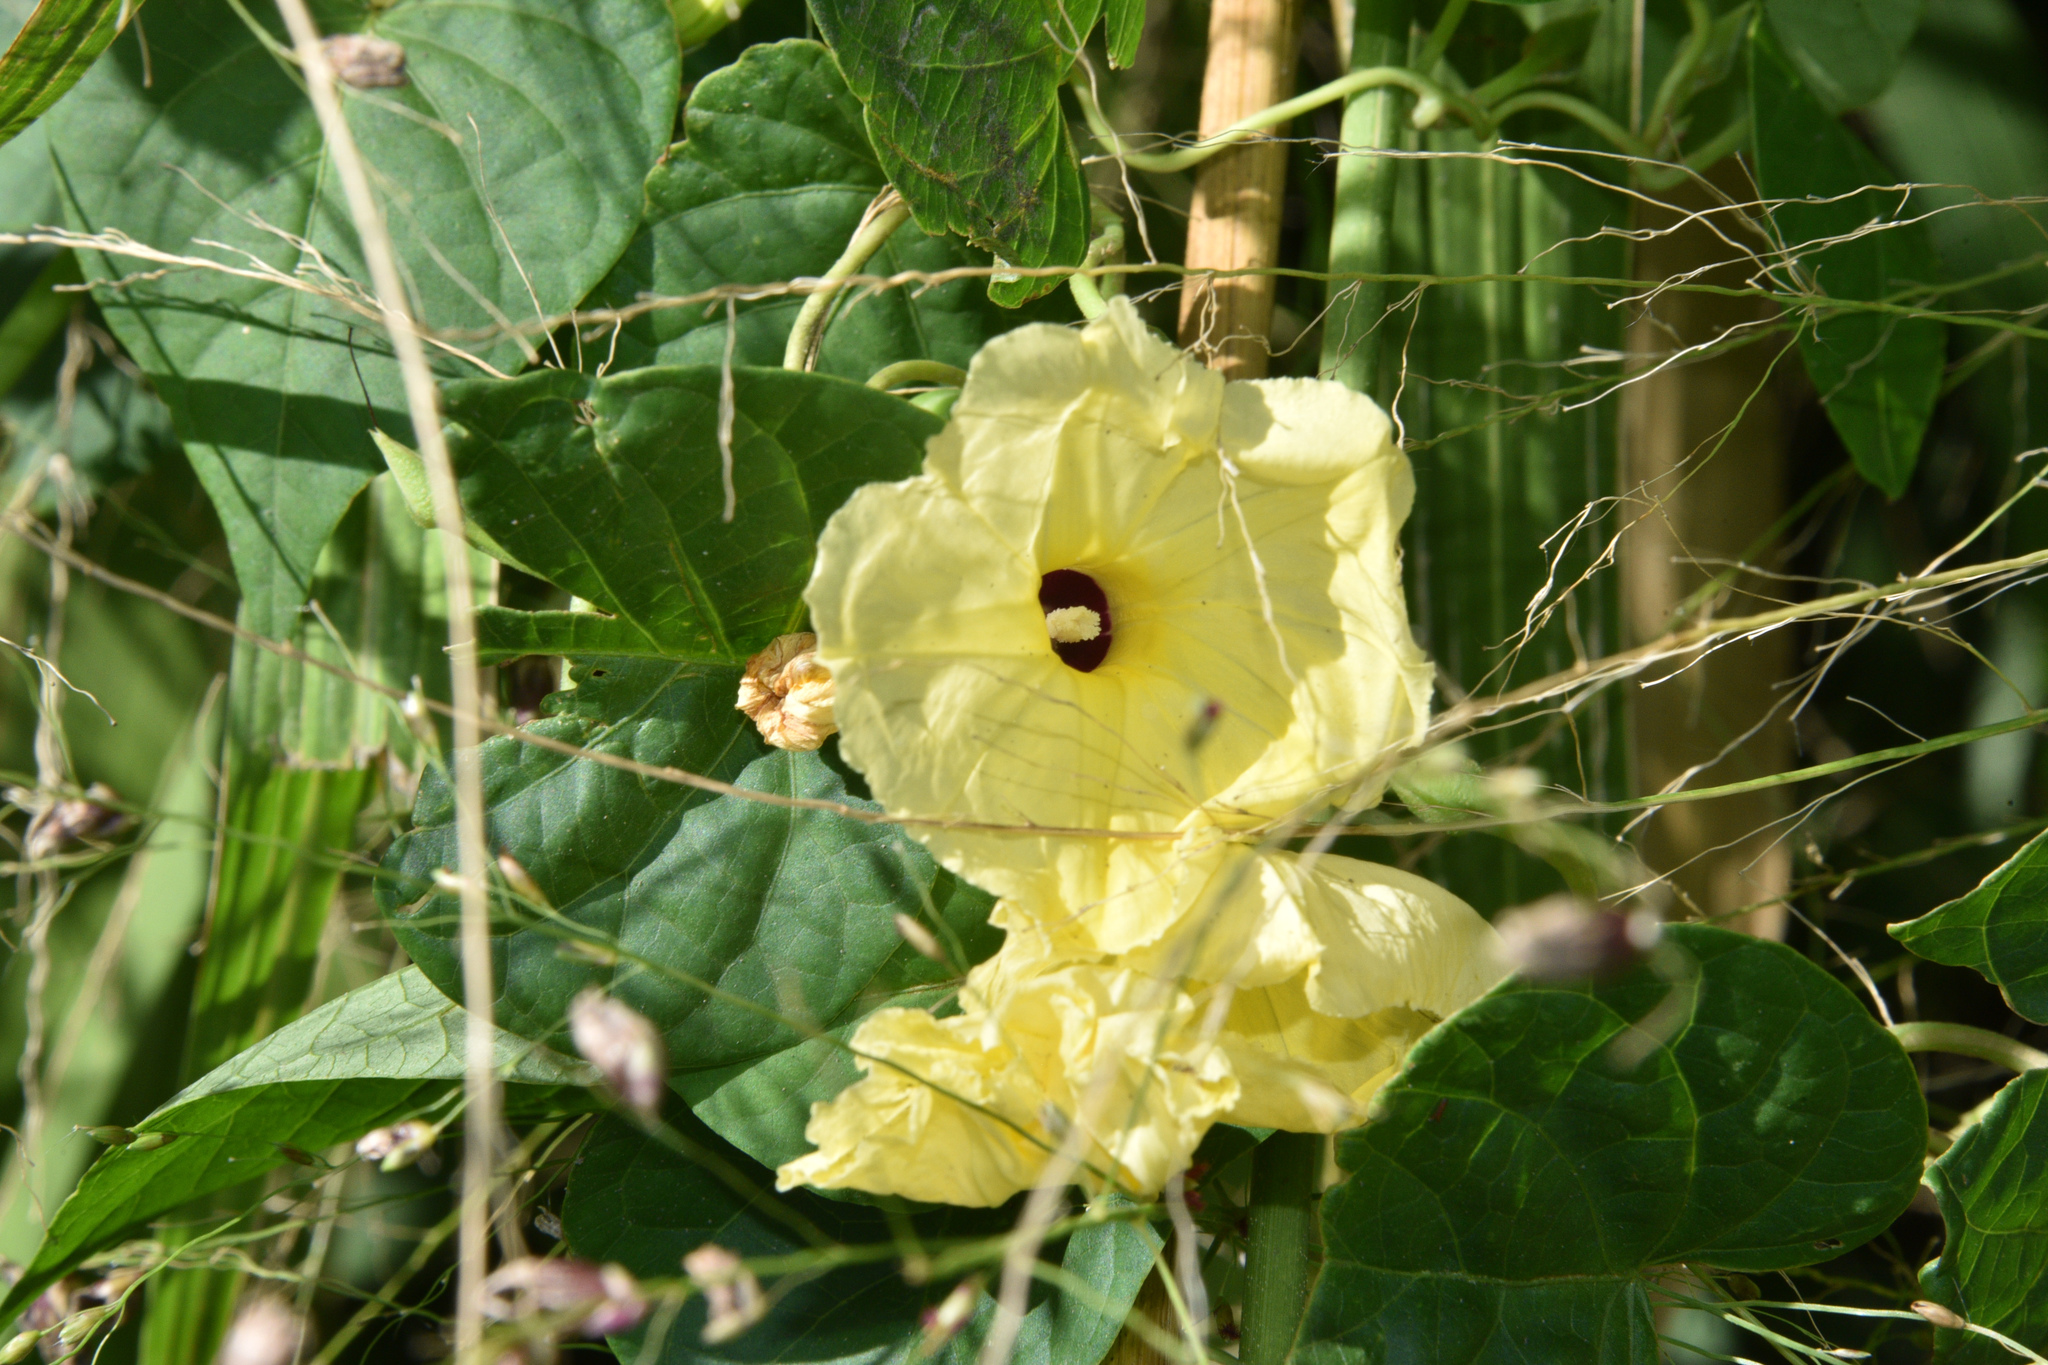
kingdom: Plantae
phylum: Tracheophyta
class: Magnoliopsida
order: Malvales
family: Malvaceae
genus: Talipariti
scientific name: Talipariti tiliaceum
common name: Sea hibiscus
